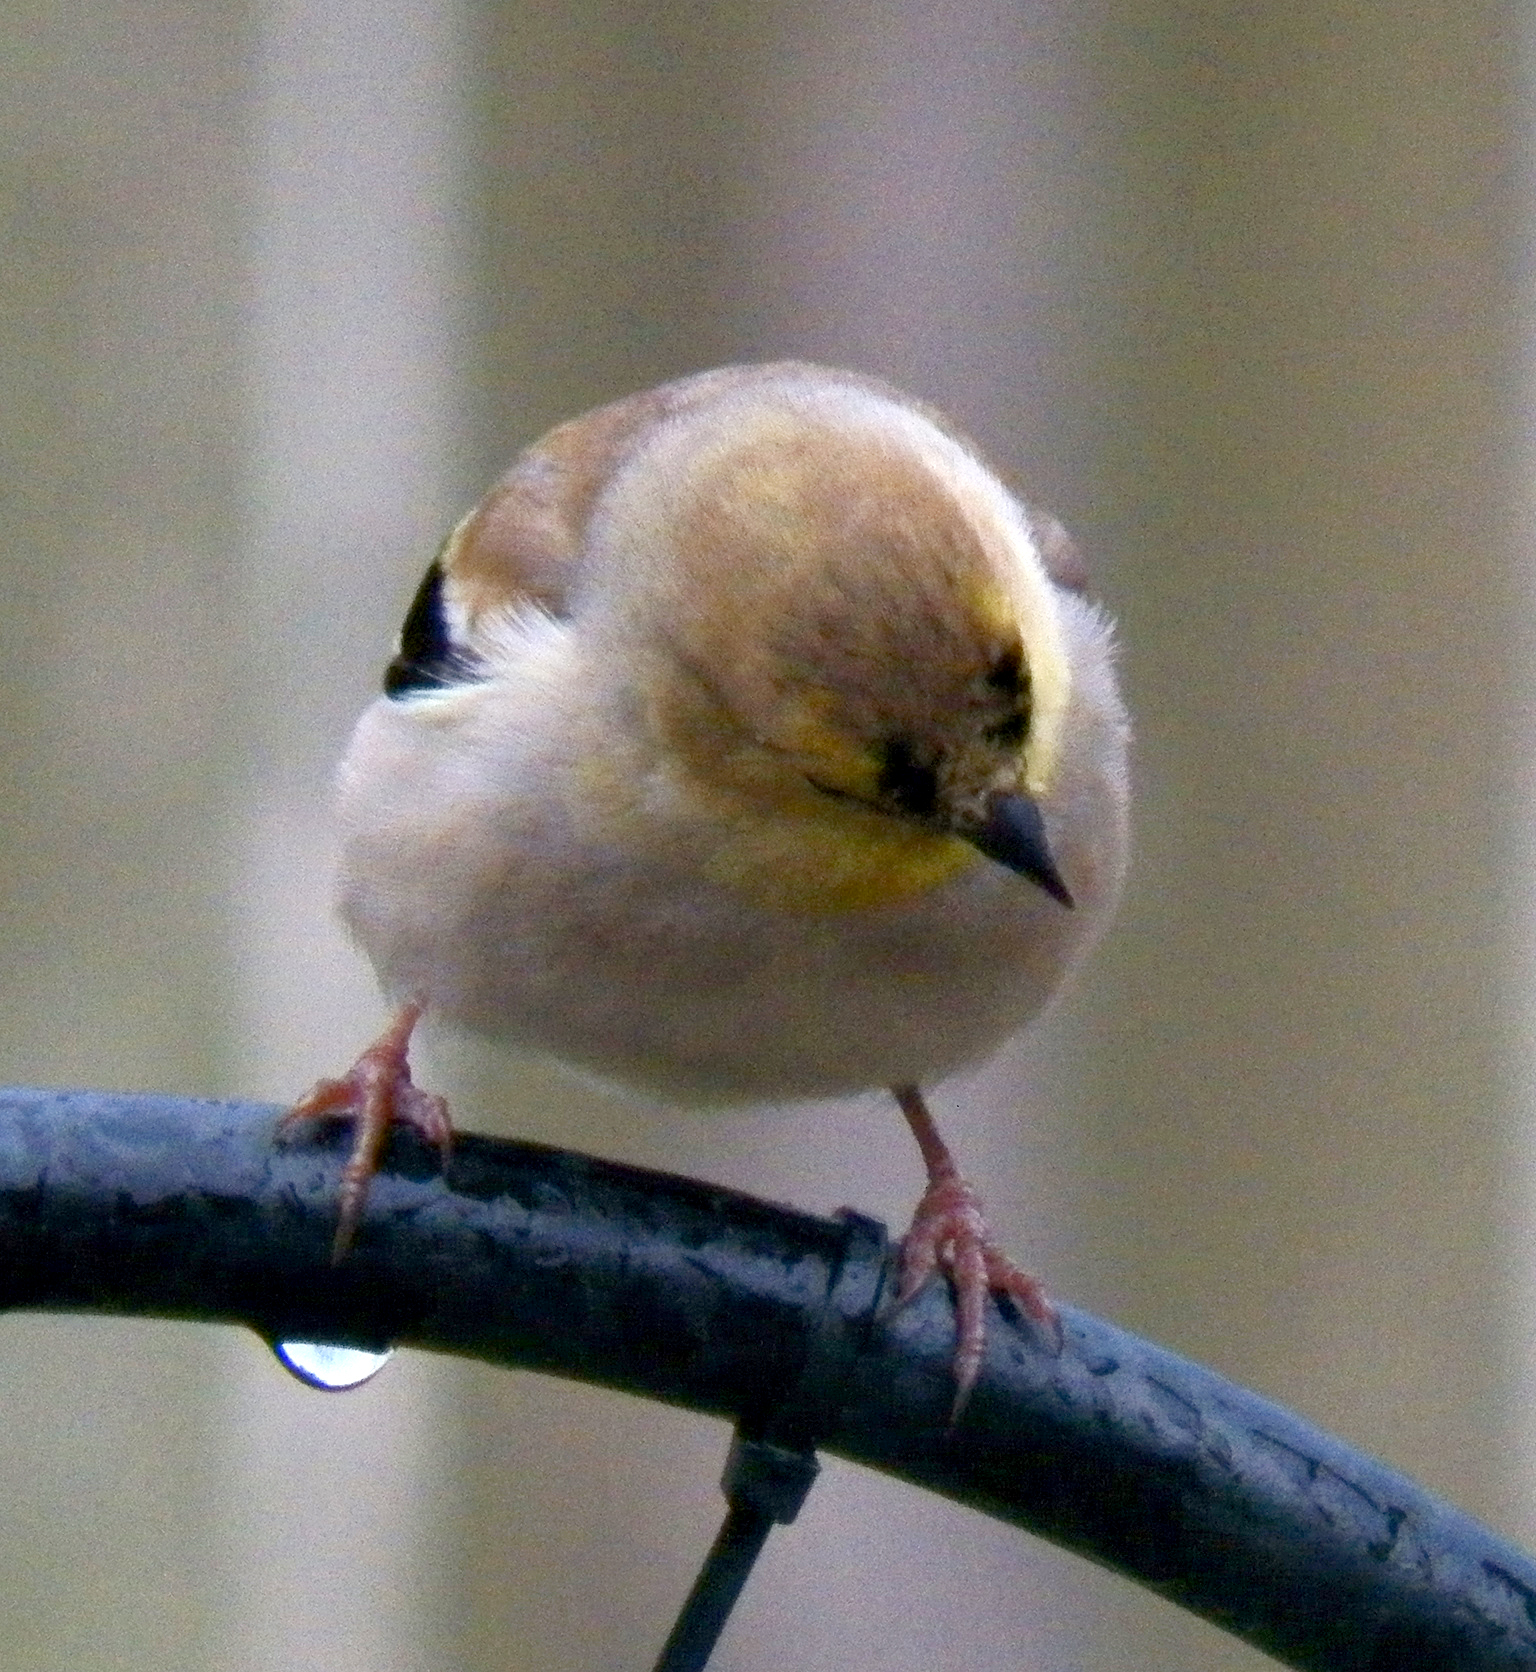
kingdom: Animalia
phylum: Chordata
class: Aves
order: Passeriformes
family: Fringillidae
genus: Spinus
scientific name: Spinus tristis
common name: American goldfinch
